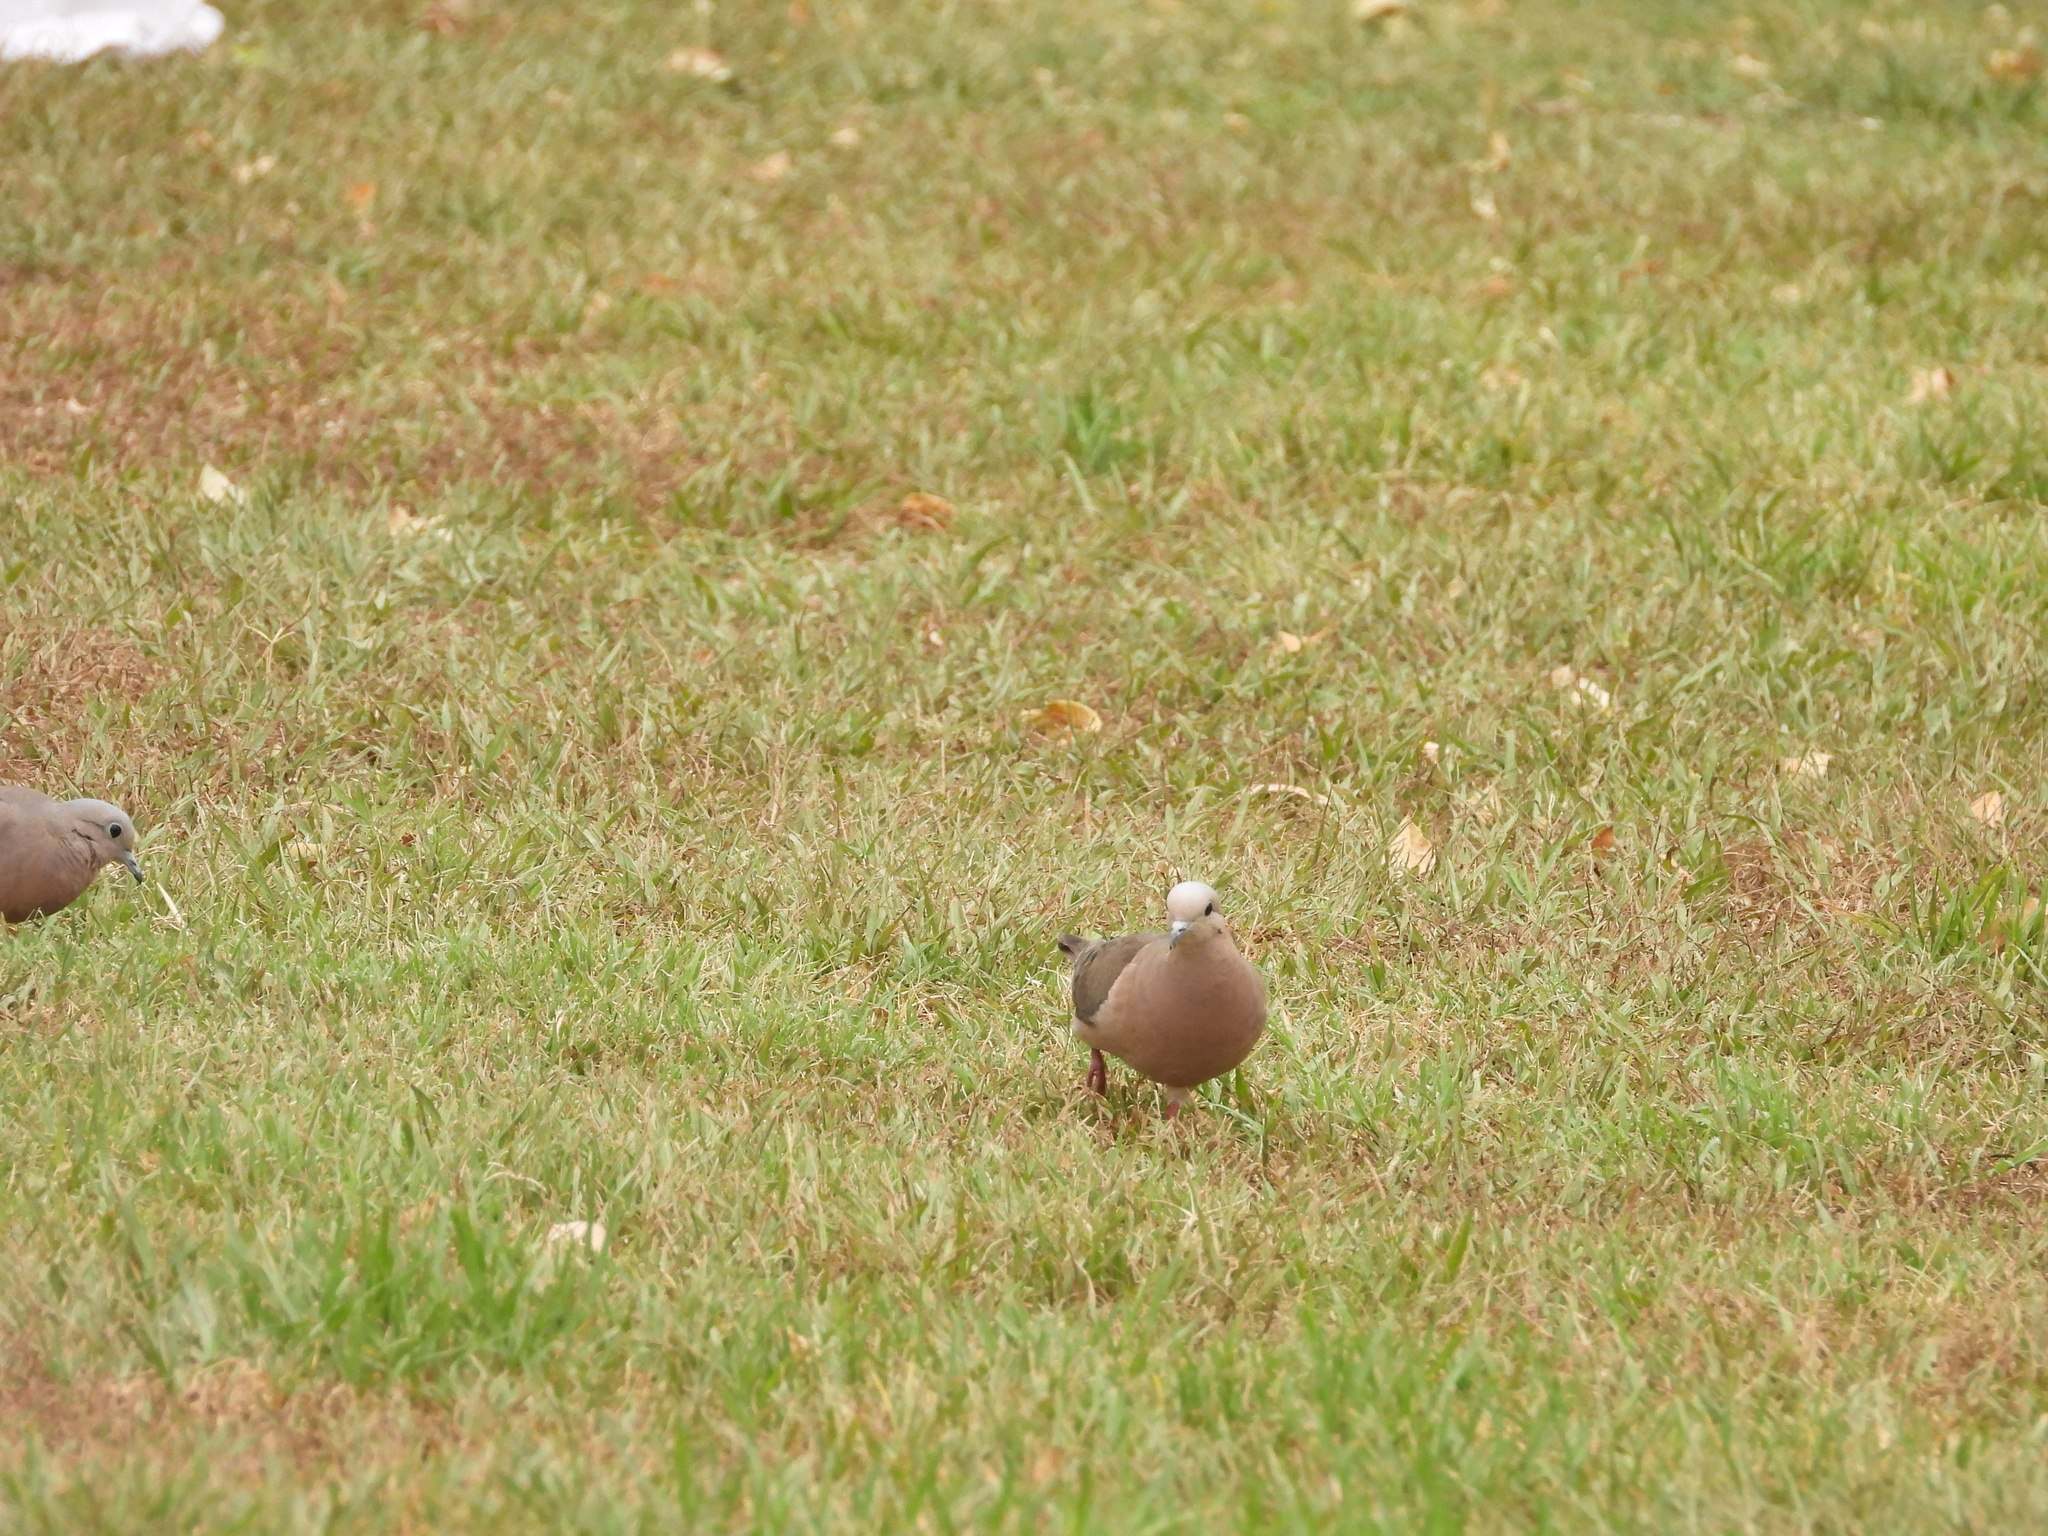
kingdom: Animalia
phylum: Chordata
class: Aves
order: Columbiformes
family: Columbidae
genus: Zenaida
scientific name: Zenaida auriculata
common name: Eared dove
